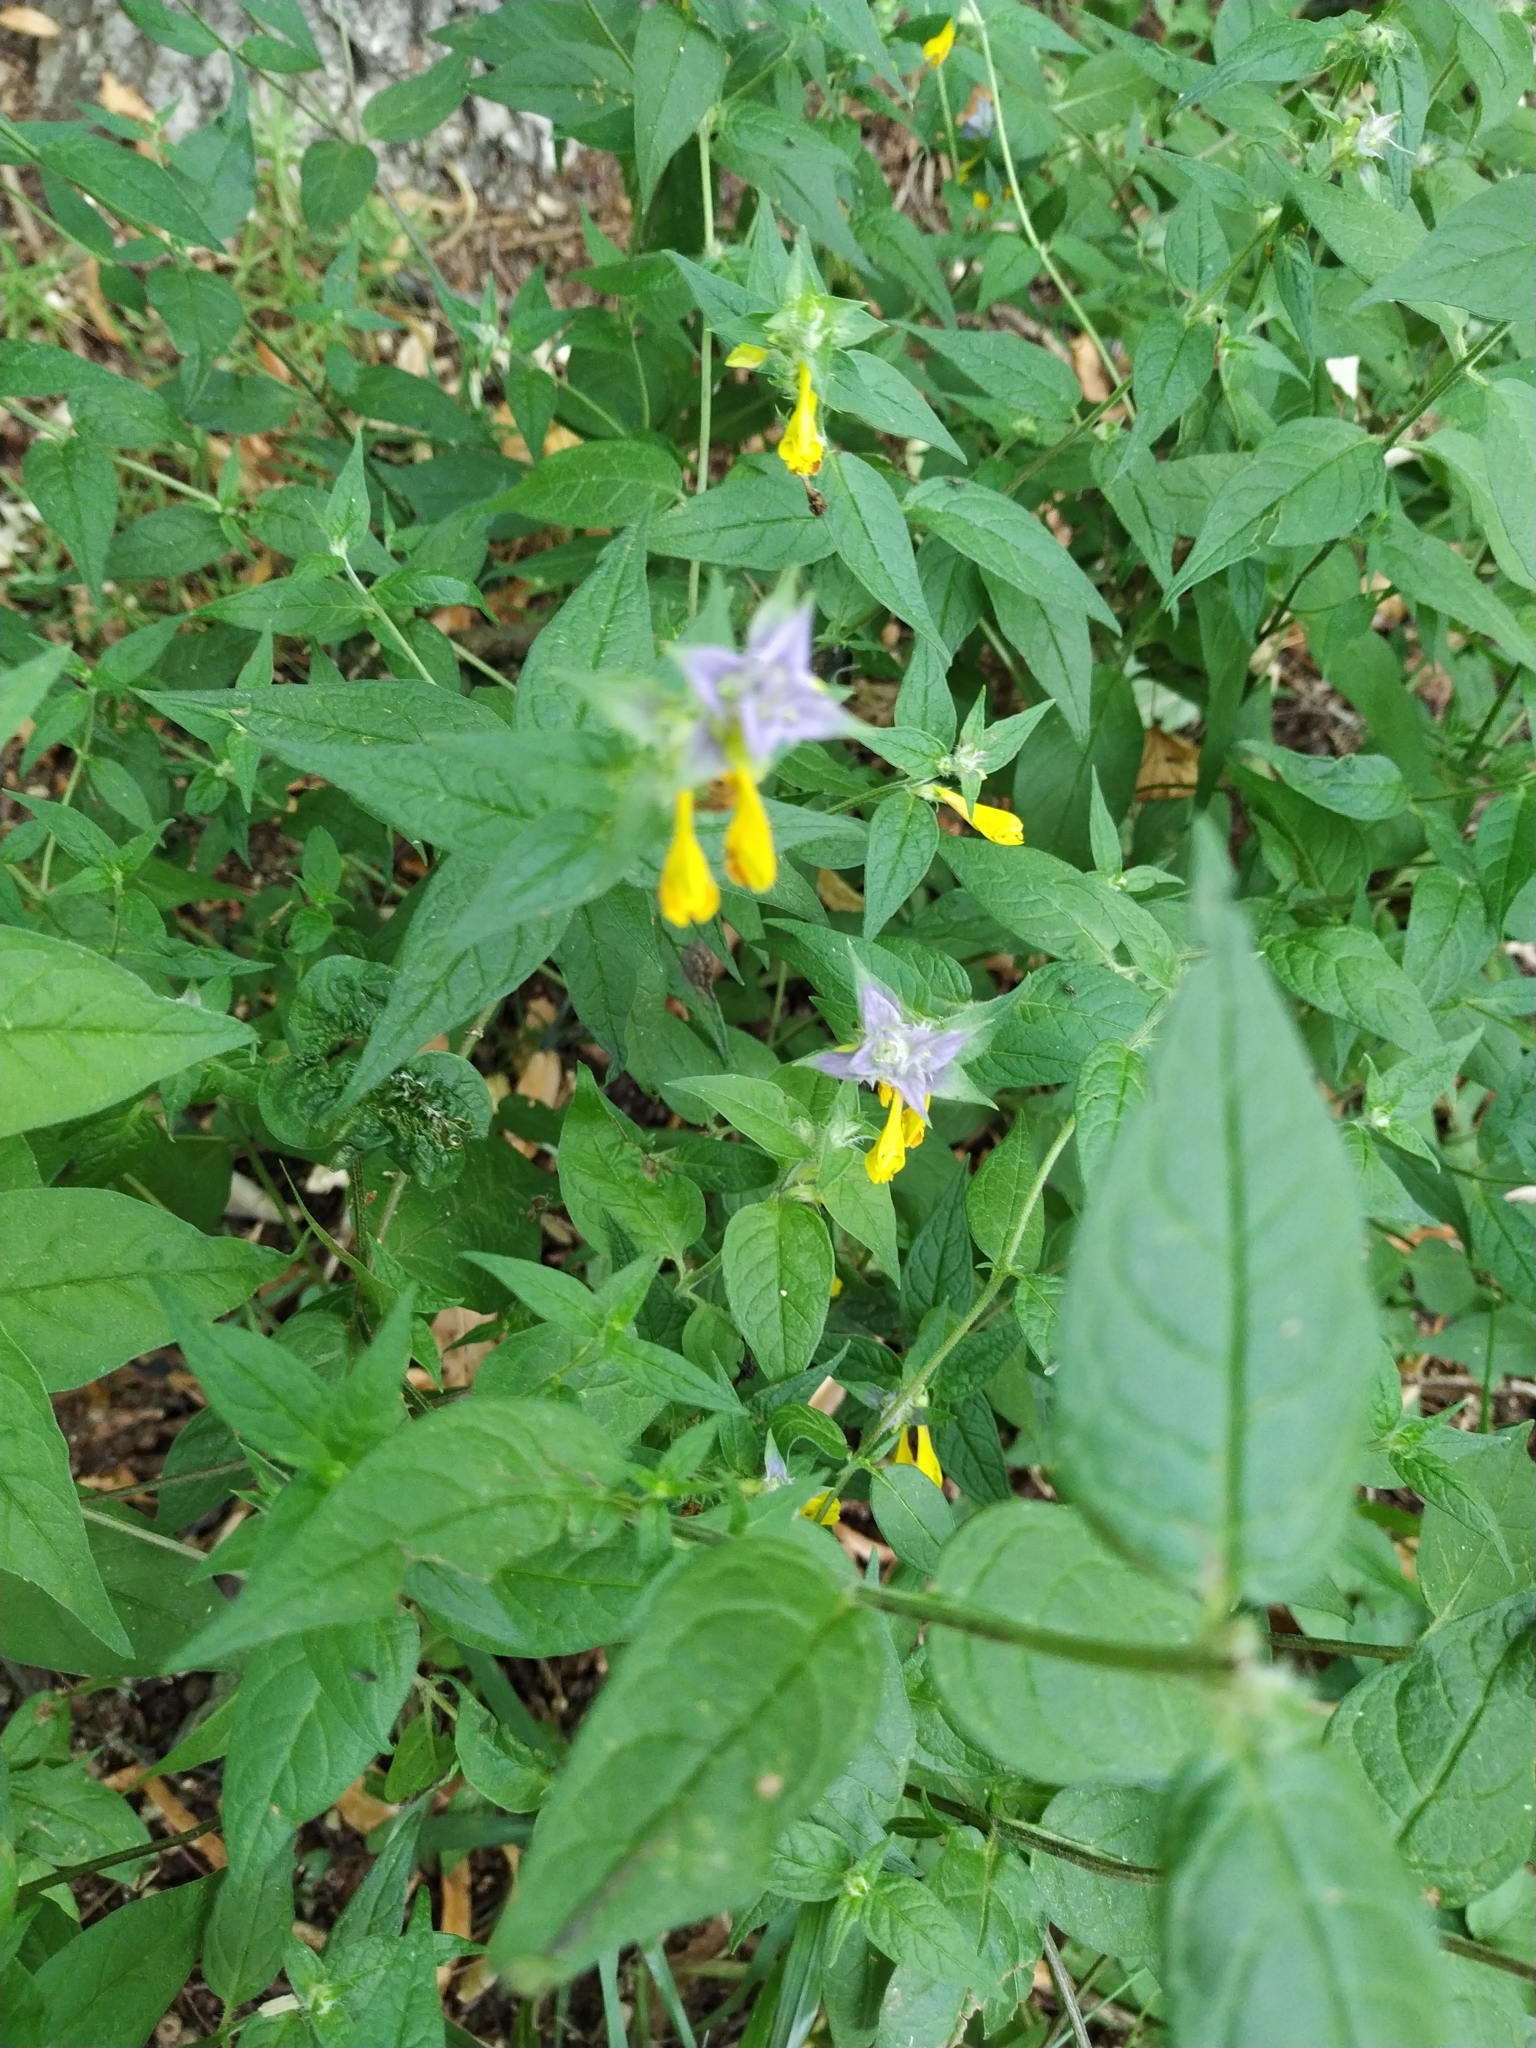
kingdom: Plantae
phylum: Tracheophyta
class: Magnoliopsida
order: Lamiales
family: Orobanchaceae
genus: Melampyrum
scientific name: Melampyrum nemorosum
